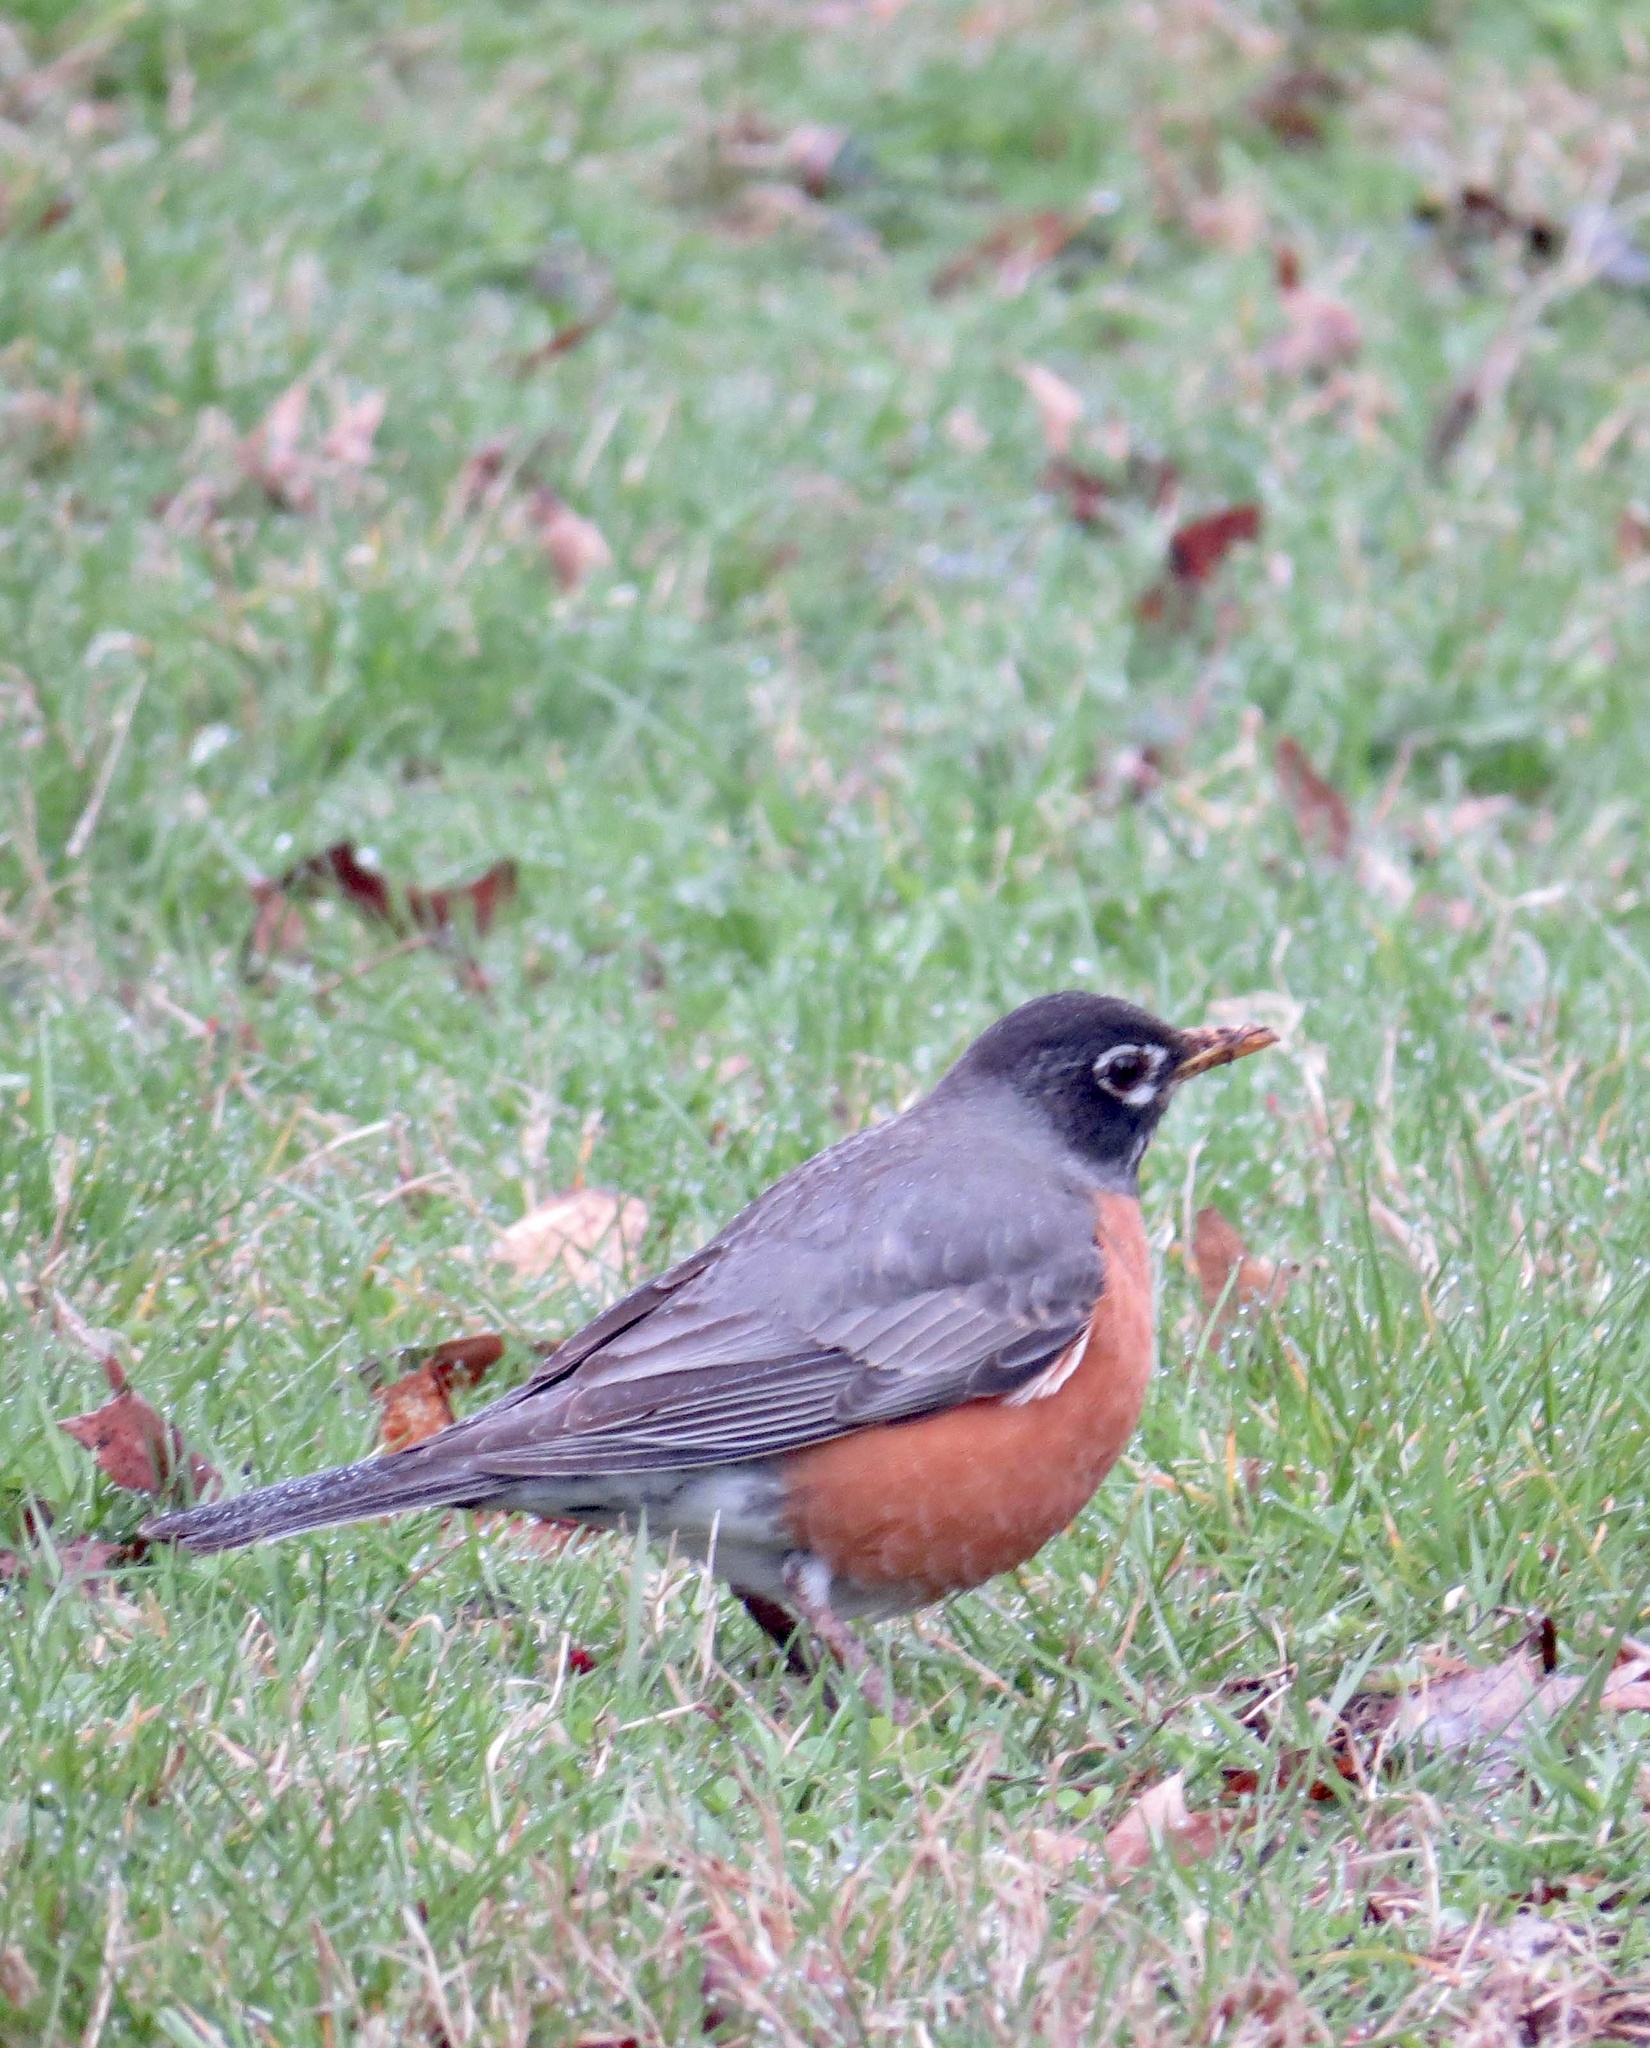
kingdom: Animalia
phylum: Chordata
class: Aves
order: Passeriformes
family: Turdidae
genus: Turdus
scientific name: Turdus migratorius
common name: American robin
